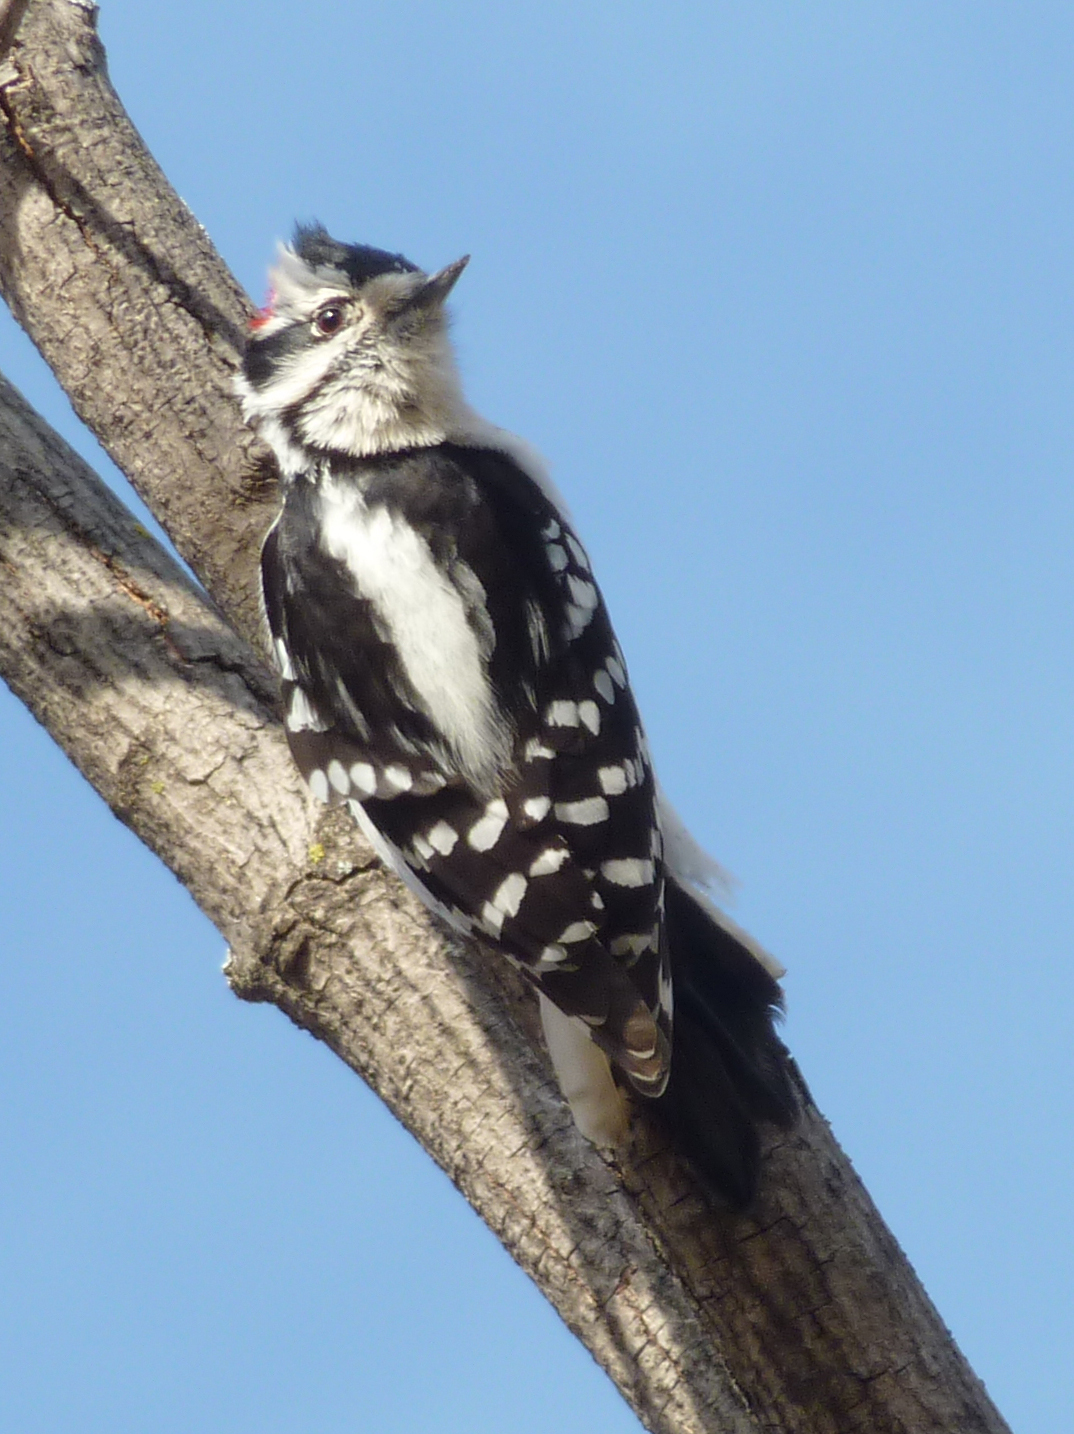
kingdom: Animalia
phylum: Chordata
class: Aves
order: Piciformes
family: Picidae
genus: Dryobates
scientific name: Dryobates pubescens
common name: Downy woodpecker
